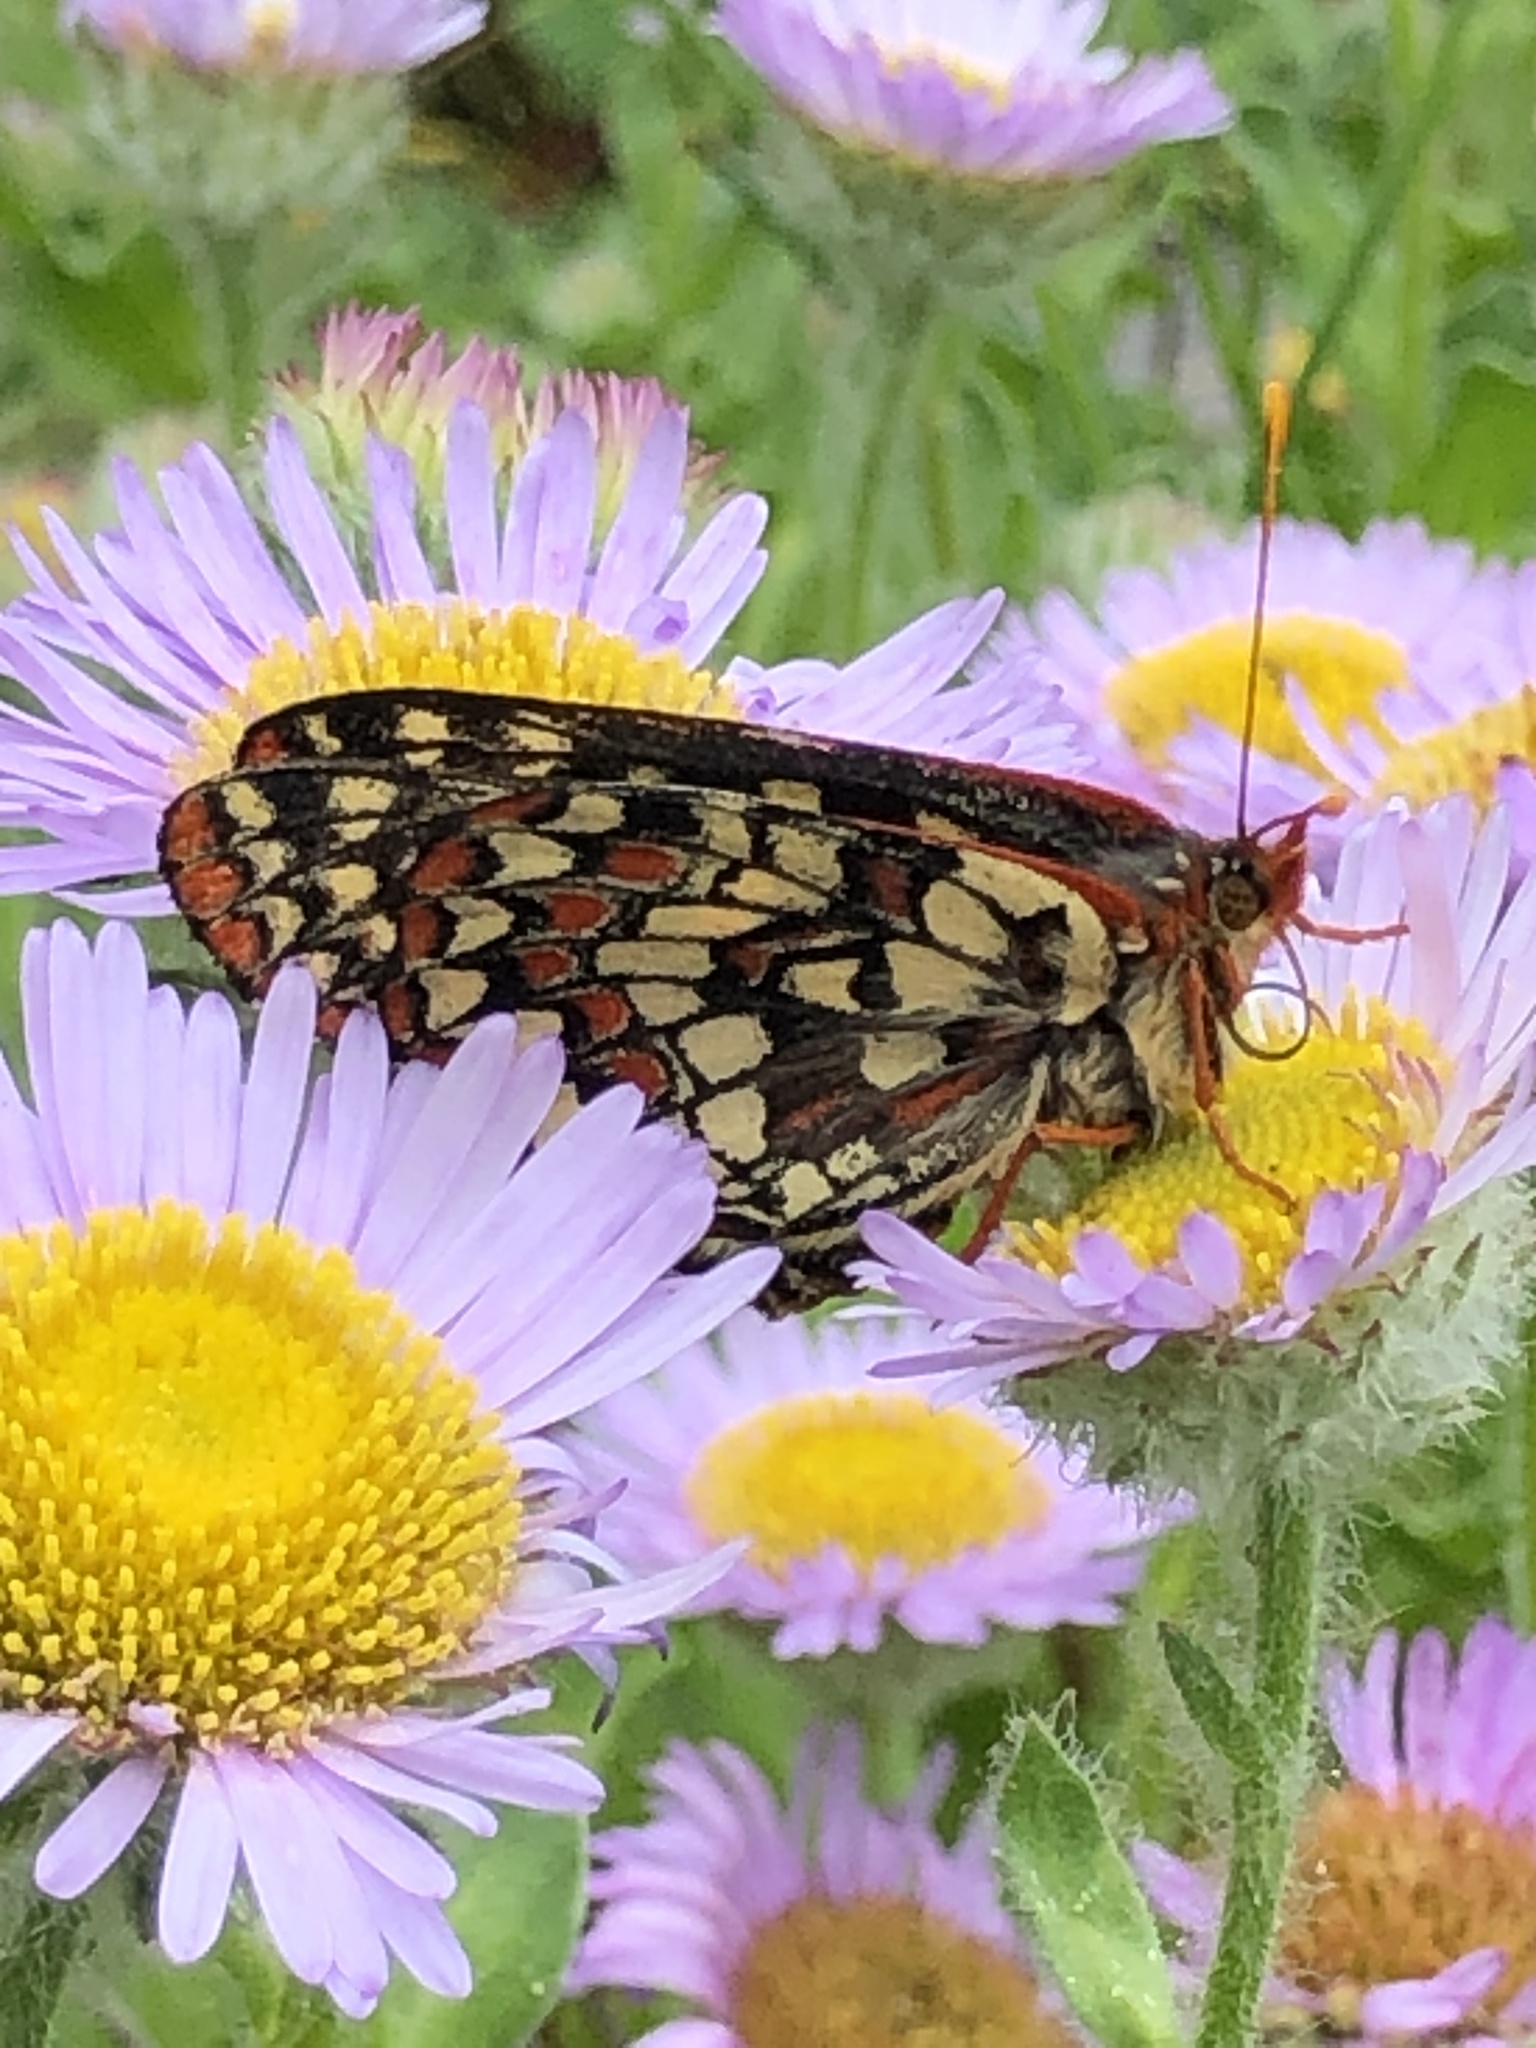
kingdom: Animalia
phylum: Arthropoda
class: Insecta
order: Lepidoptera
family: Nymphalidae
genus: Occidryas
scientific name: Occidryas chalcedona
